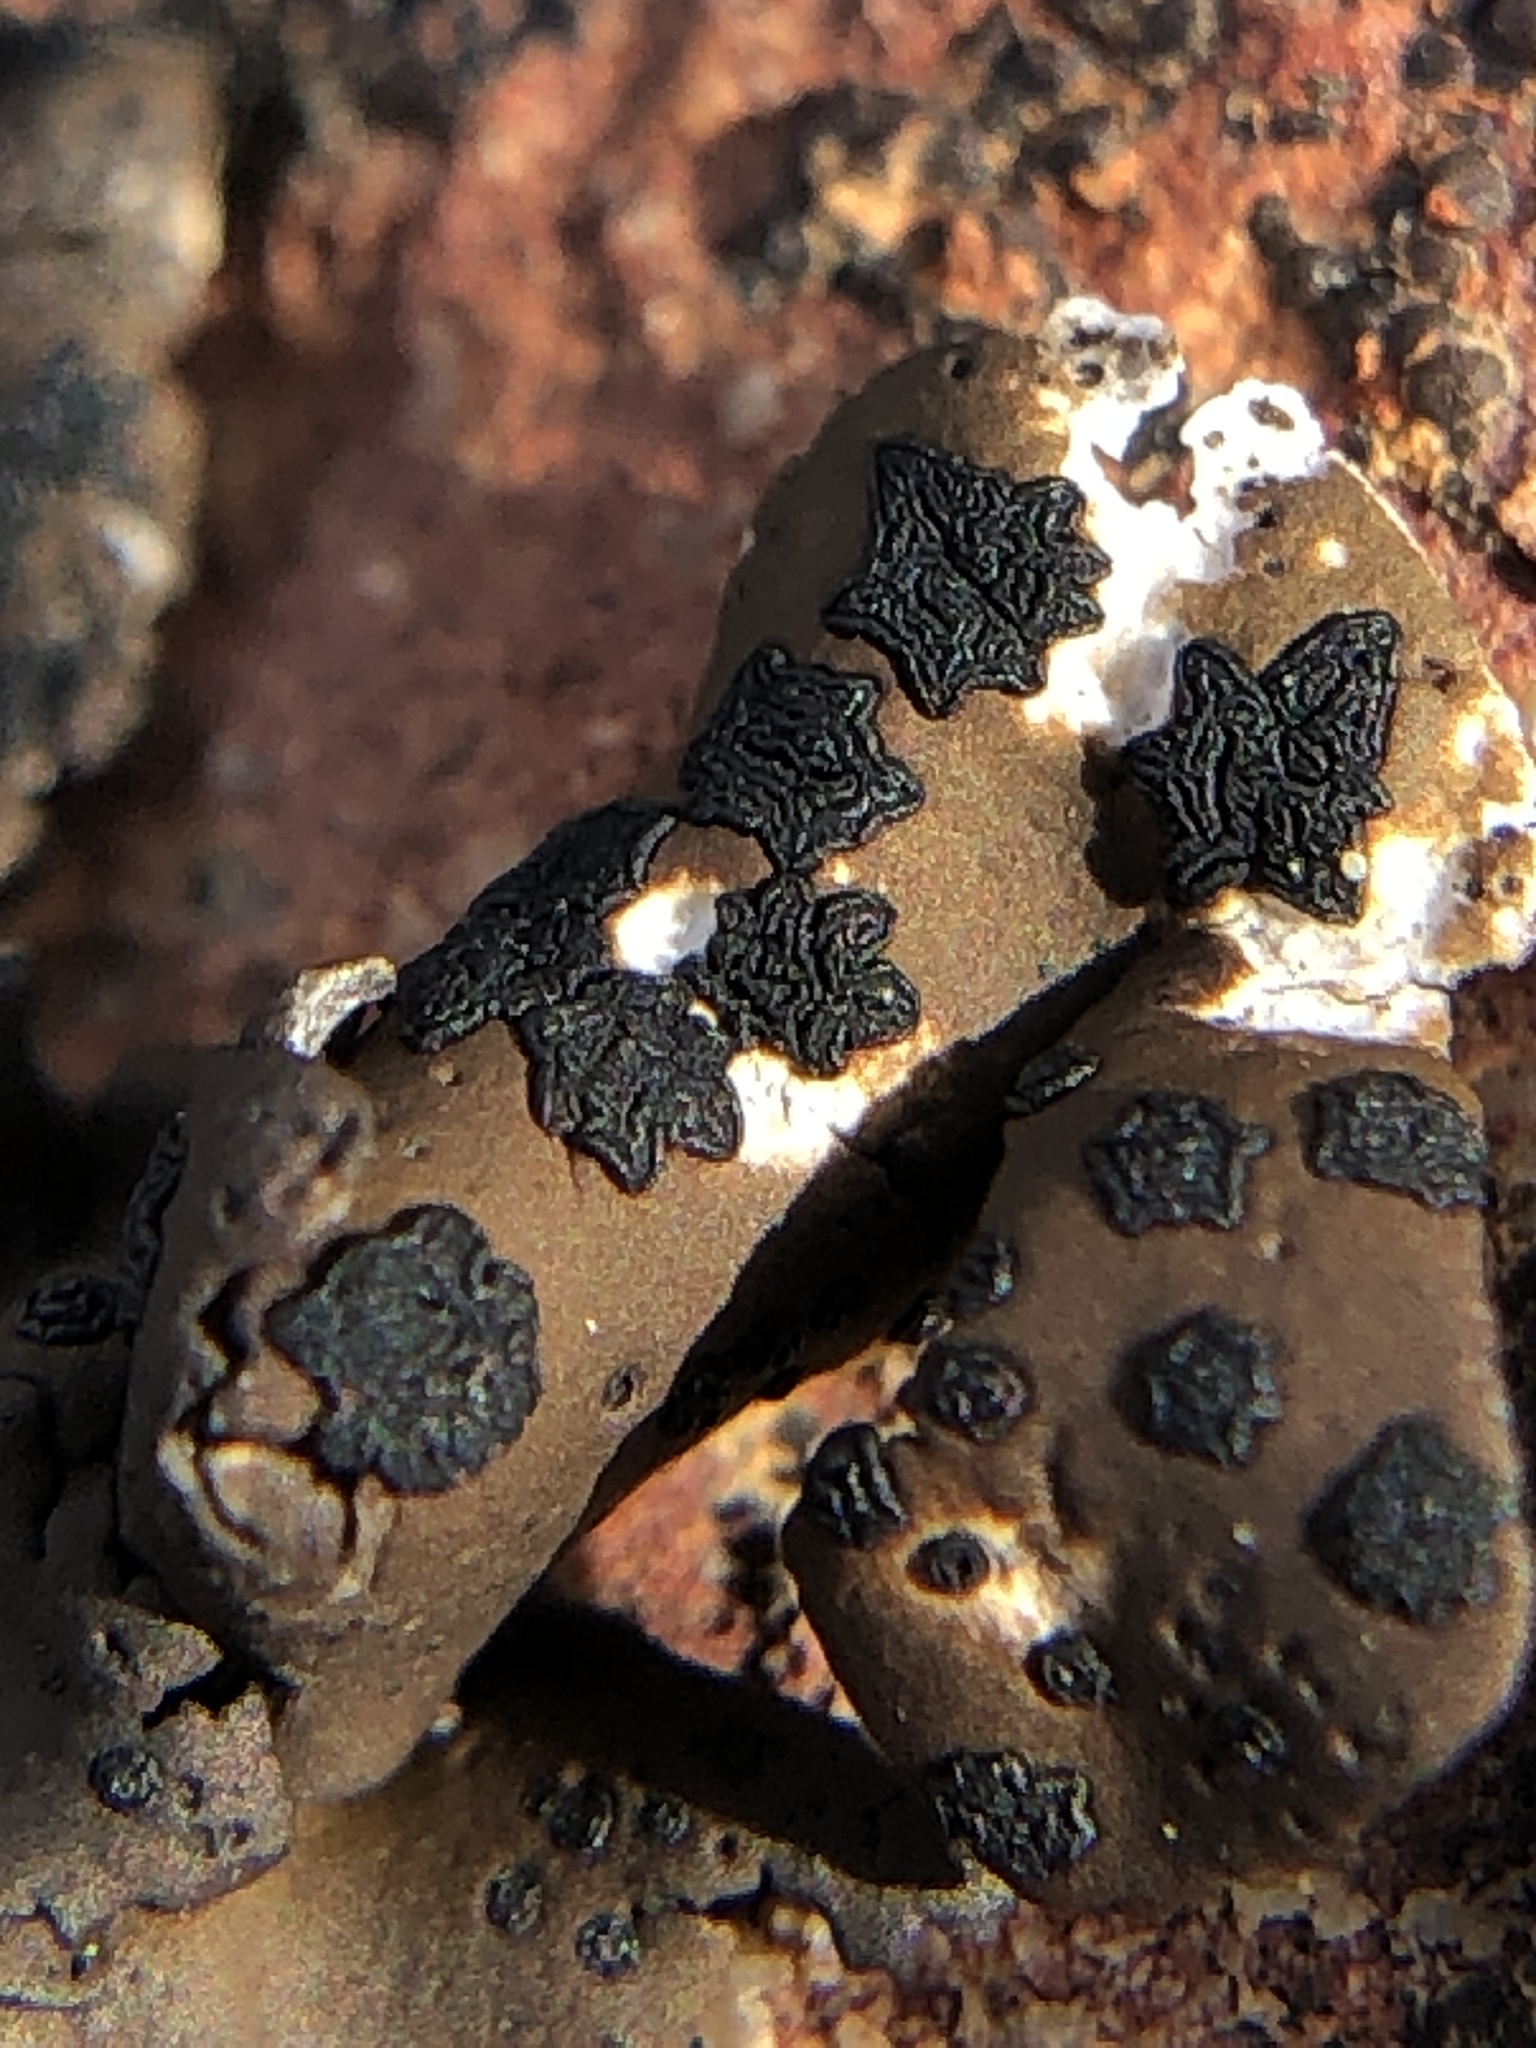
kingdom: Fungi
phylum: Ascomycota
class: Lecanoromycetes
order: Umbilicariales
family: Umbilicariaceae
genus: Umbilicaria
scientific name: Umbilicaria phaea
